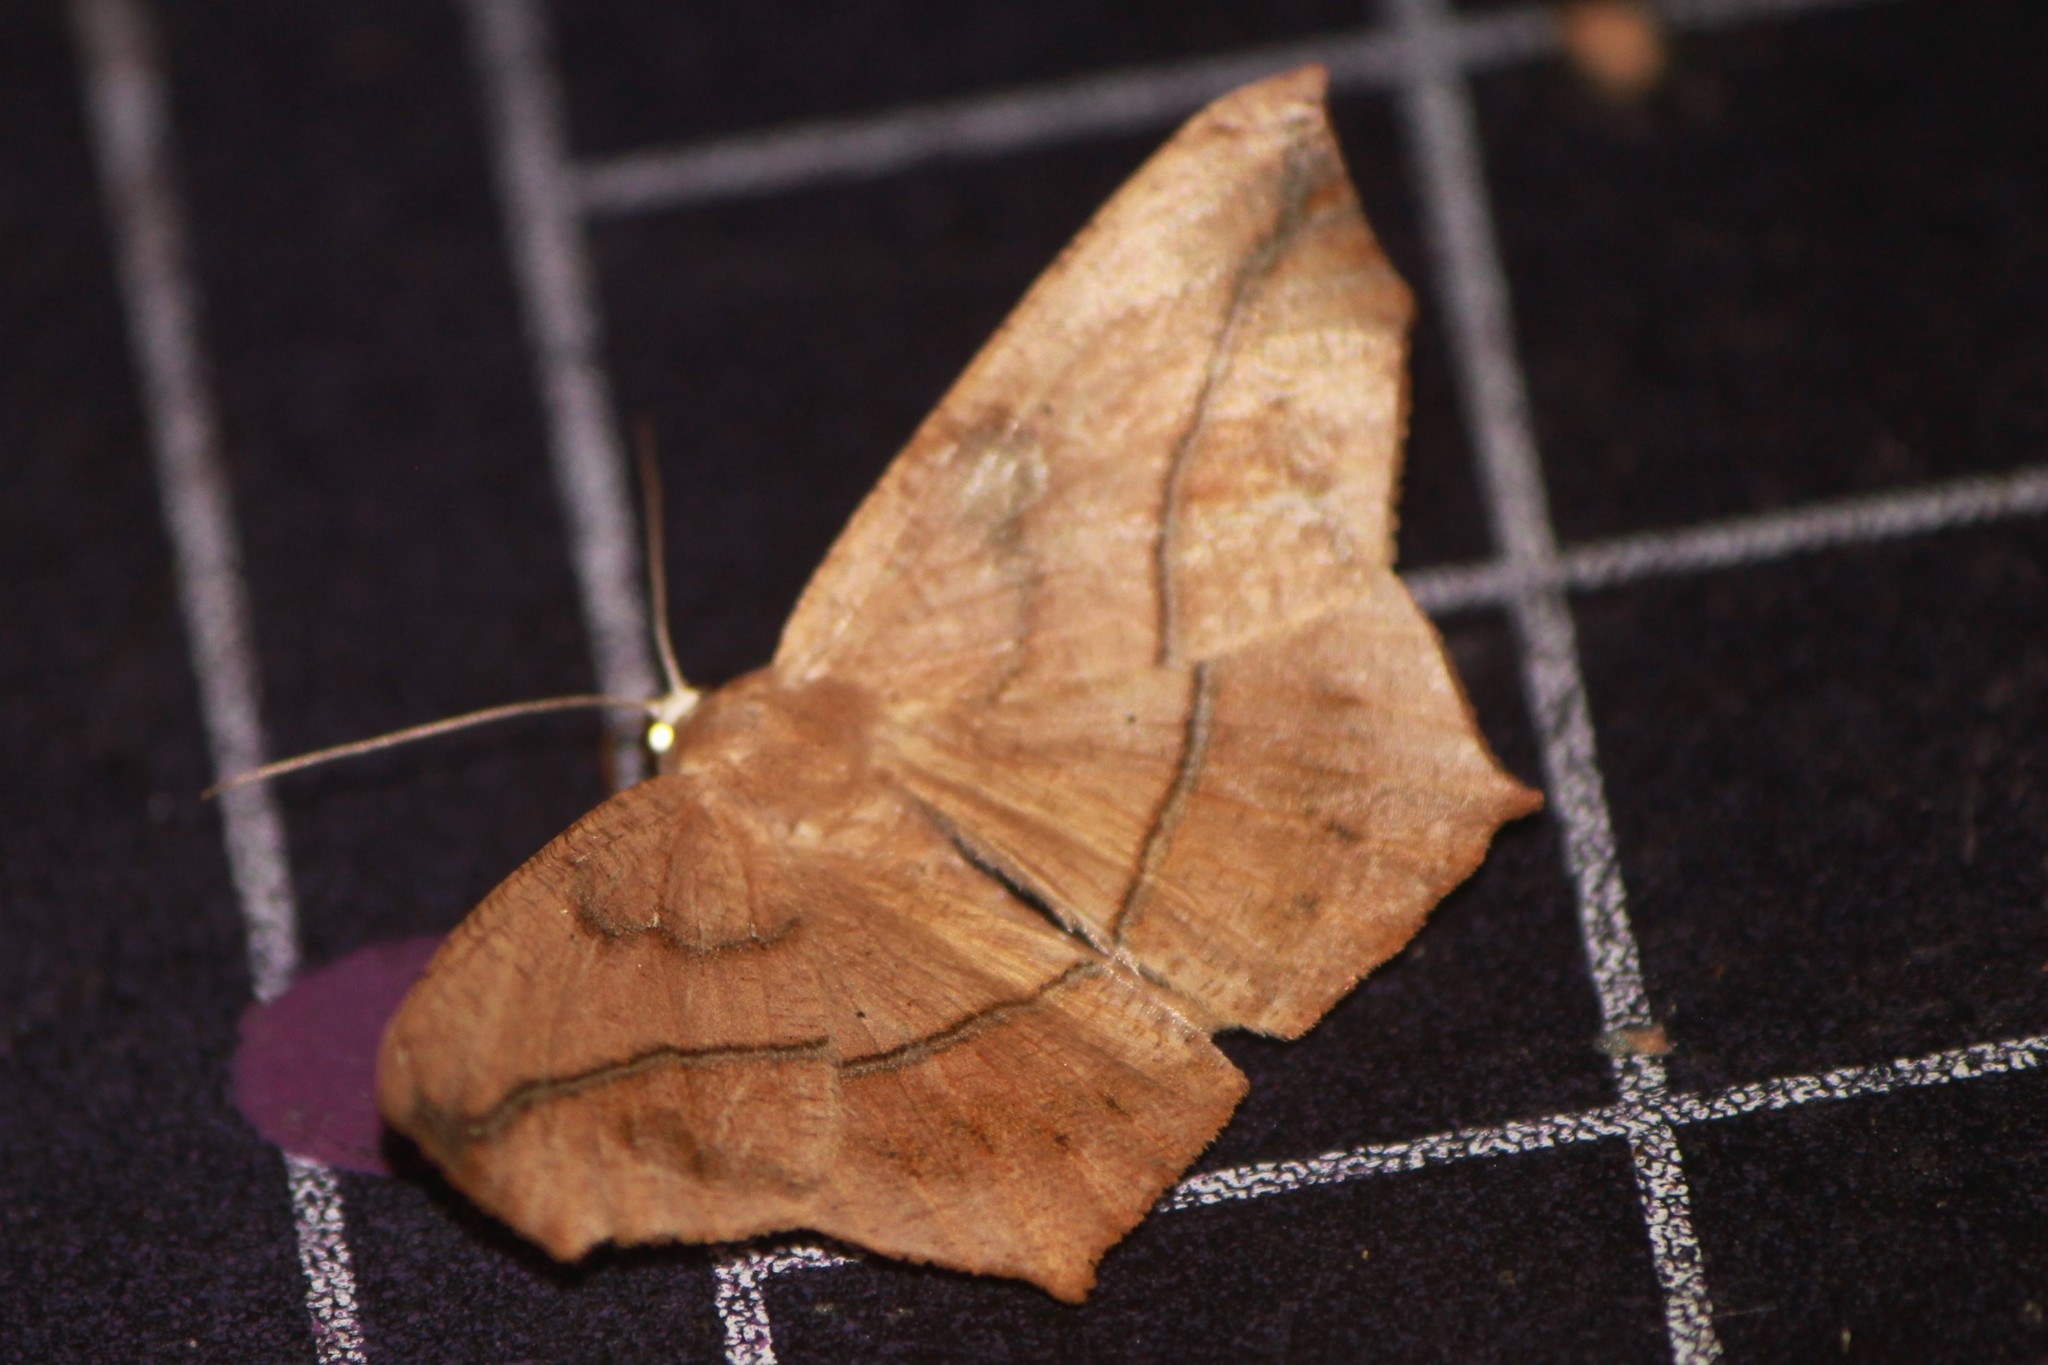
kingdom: Animalia
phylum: Arthropoda
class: Insecta
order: Lepidoptera
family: Geometridae
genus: Prochoerodes
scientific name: Prochoerodes lineola
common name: Large maple spanworm
